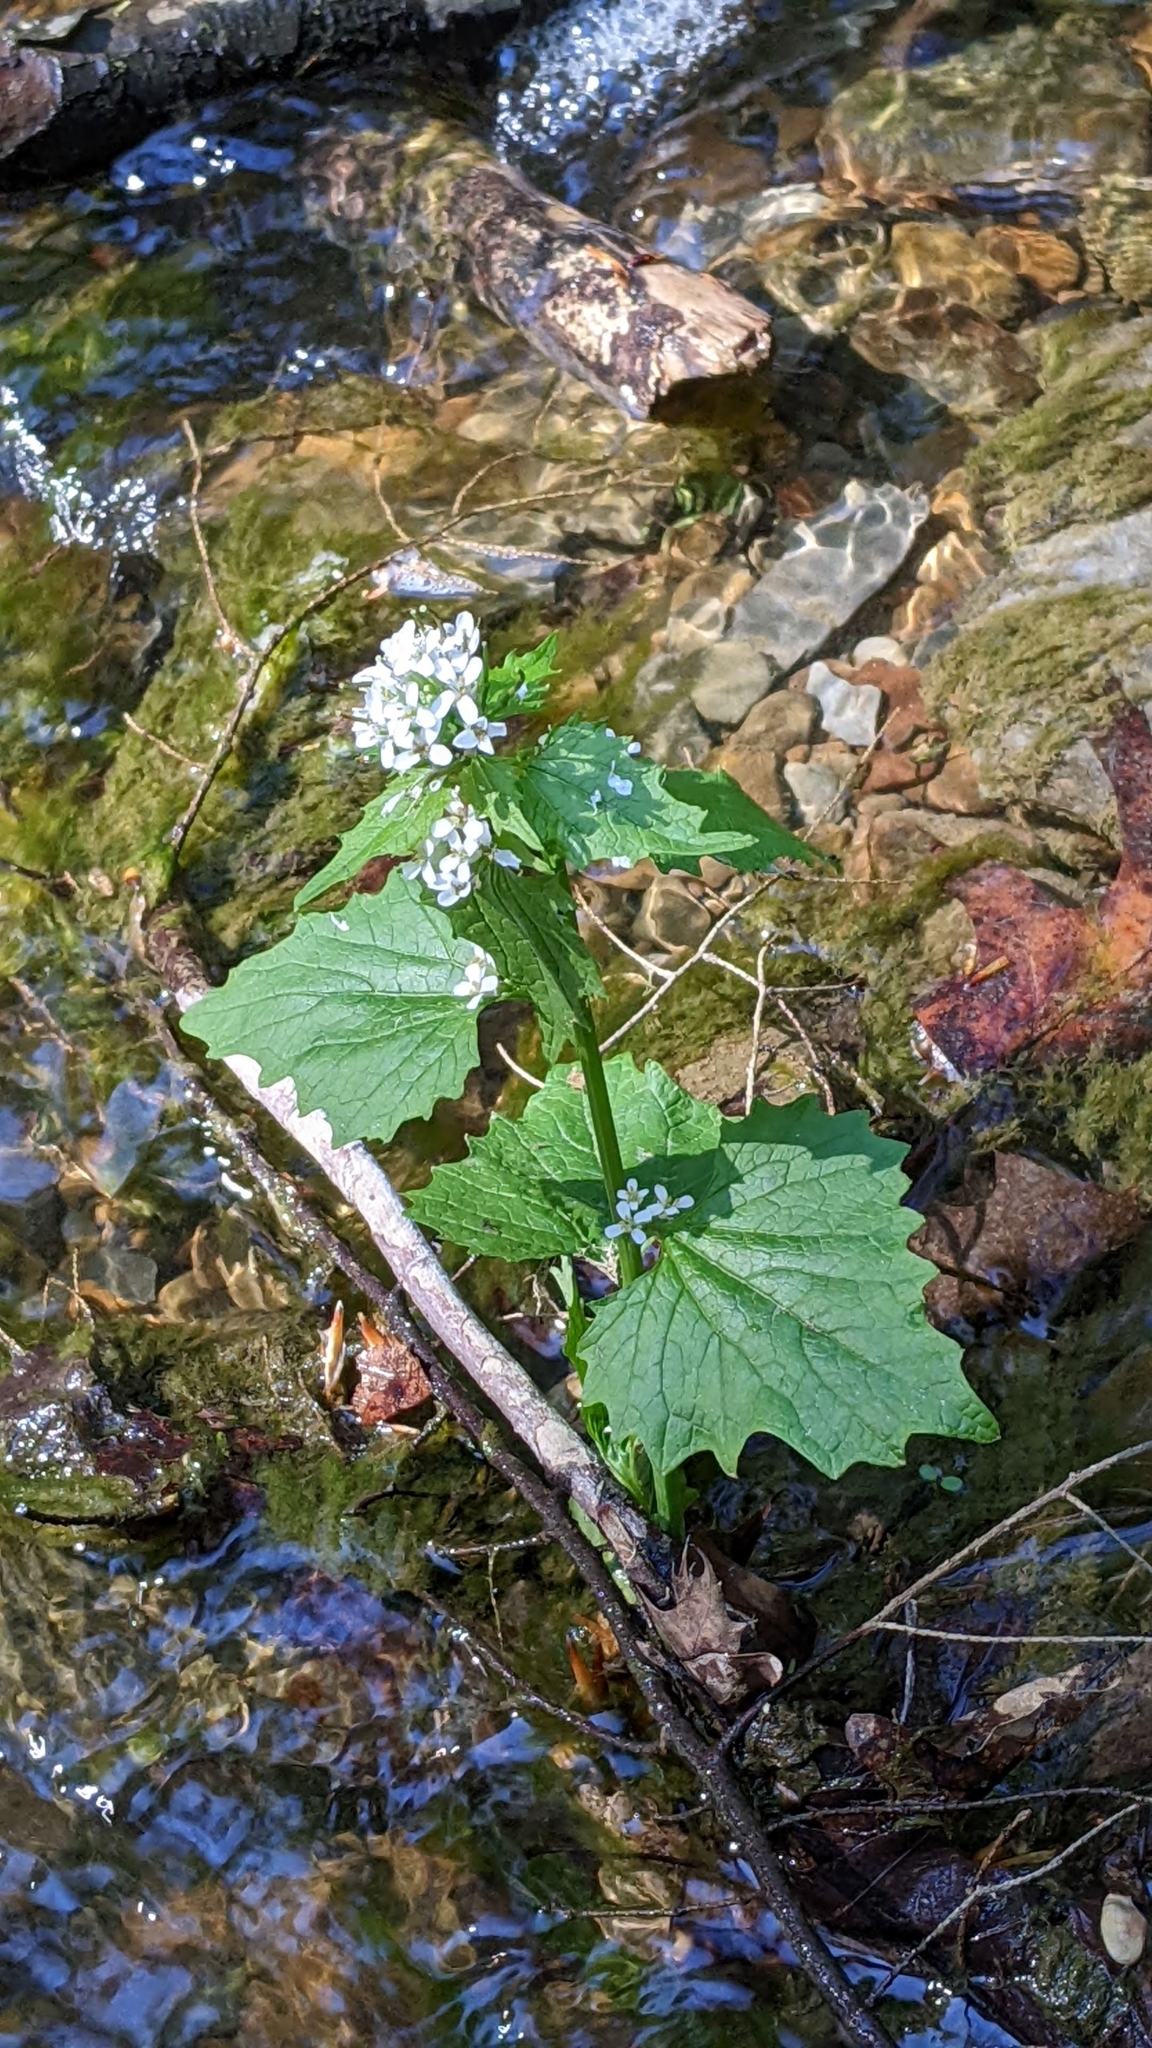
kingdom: Plantae
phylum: Tracheophyta
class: Magnoliopsida
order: Brassicales
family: Brassicaceae
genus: Alliaria
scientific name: Alliaria petiolata
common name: Garlic mustard
